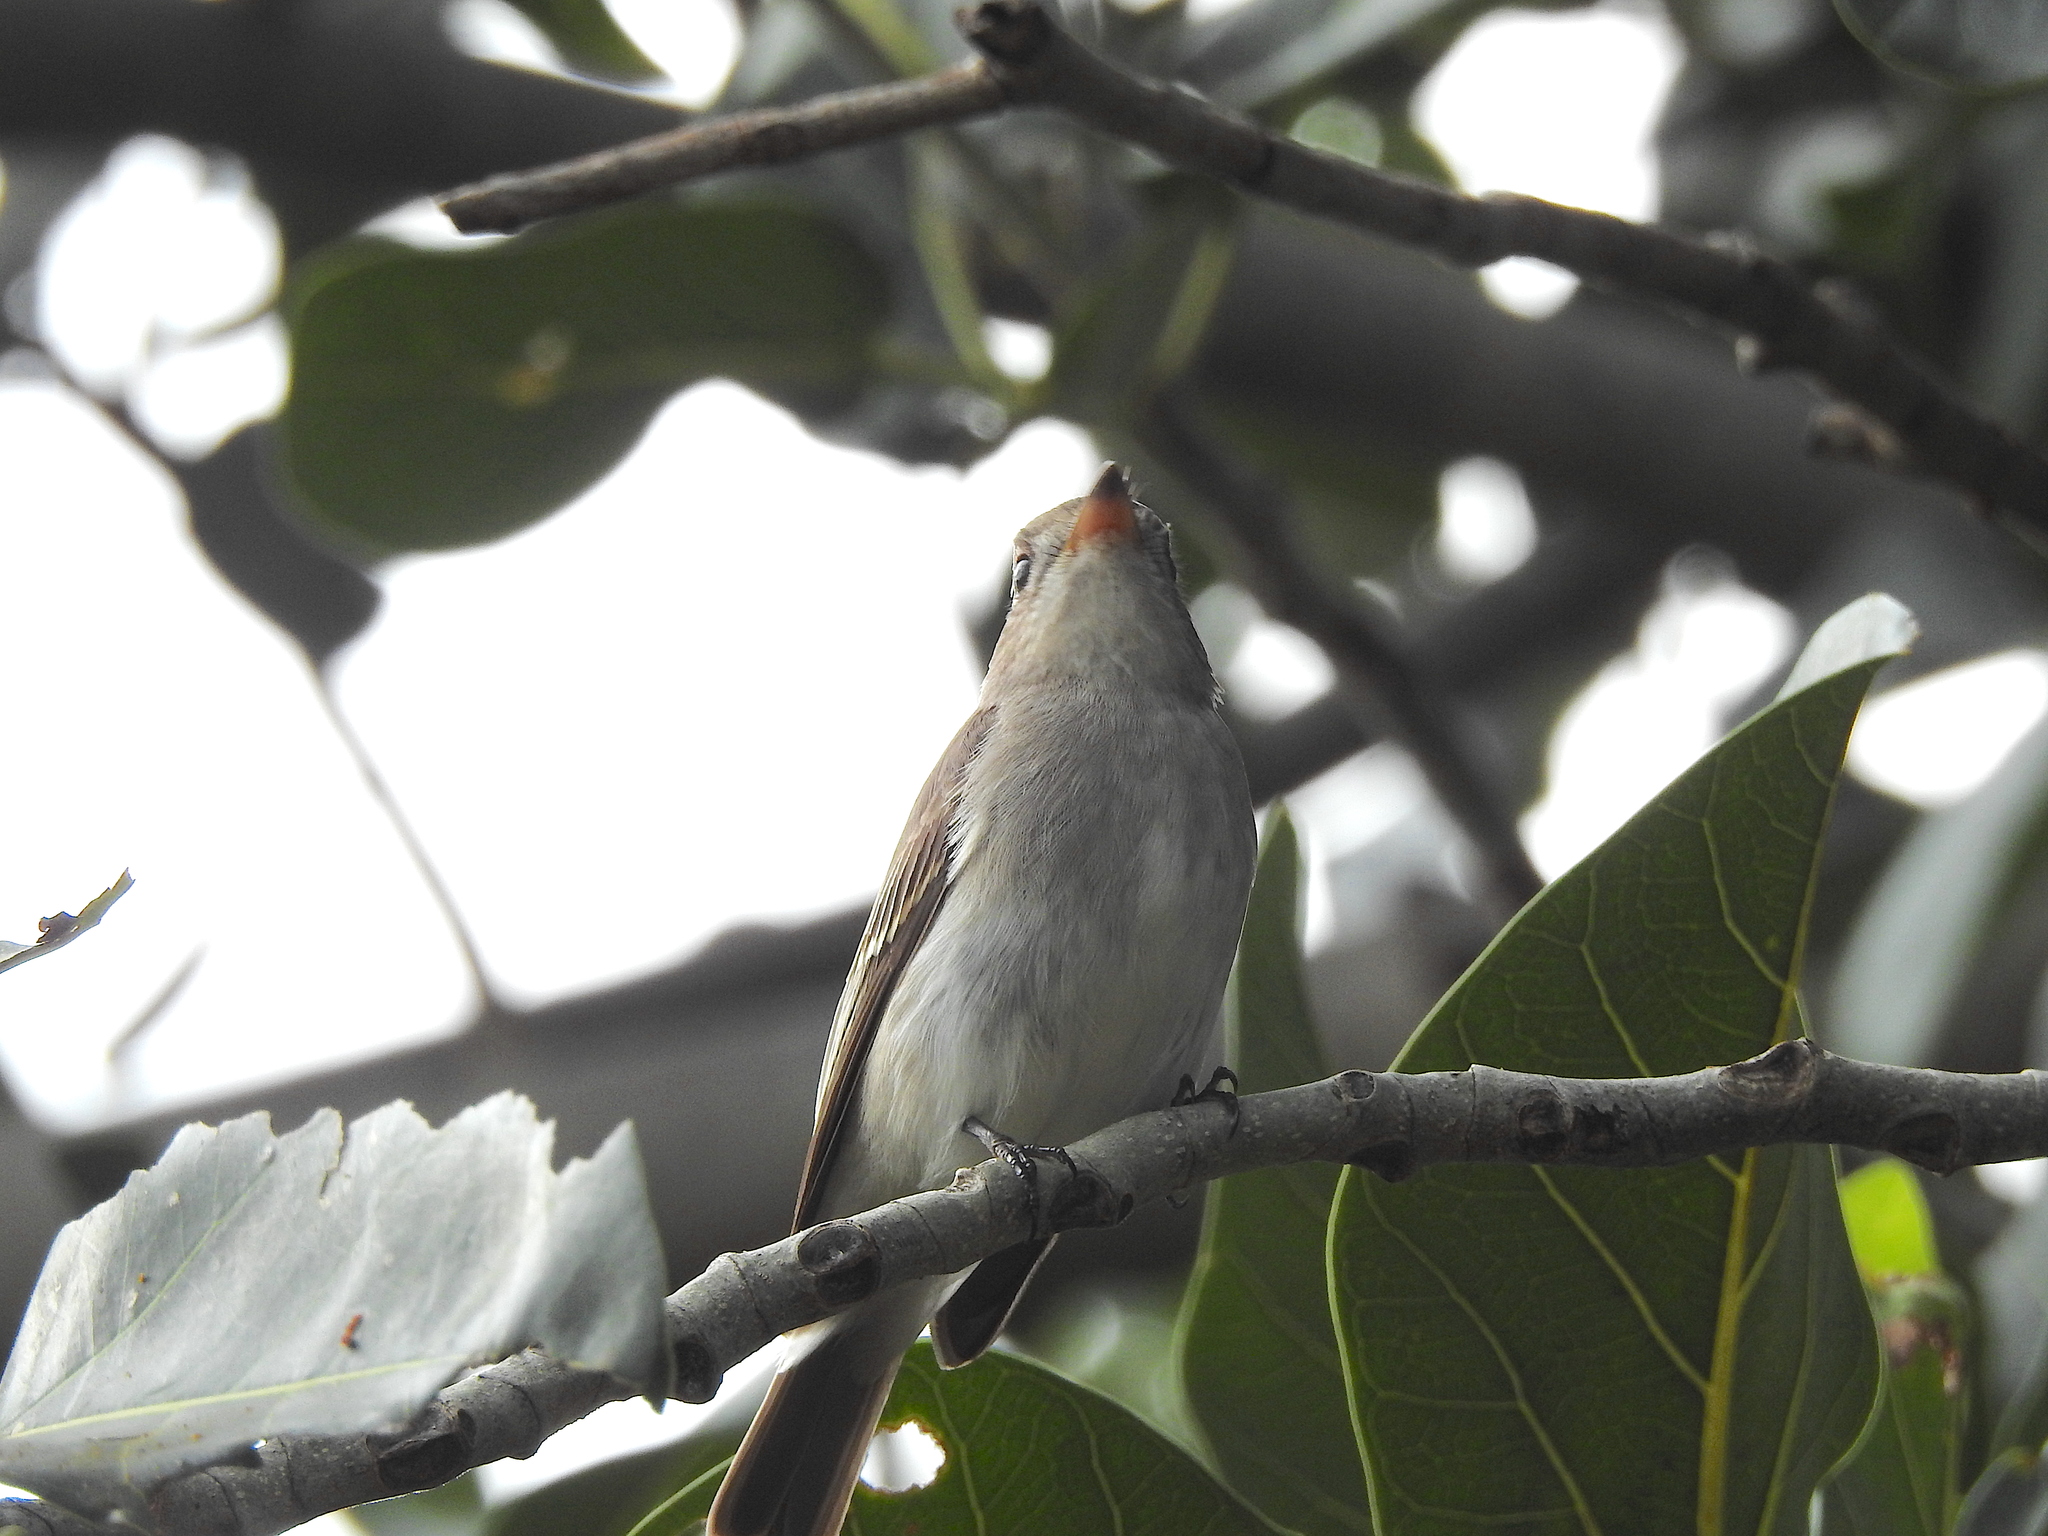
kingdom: Animalia
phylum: Chordata
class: Aves
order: Passeriformes
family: Muscicapidae
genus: Muscicapa
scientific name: Muscicapa latirostris
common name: Asian brown flycatcher
